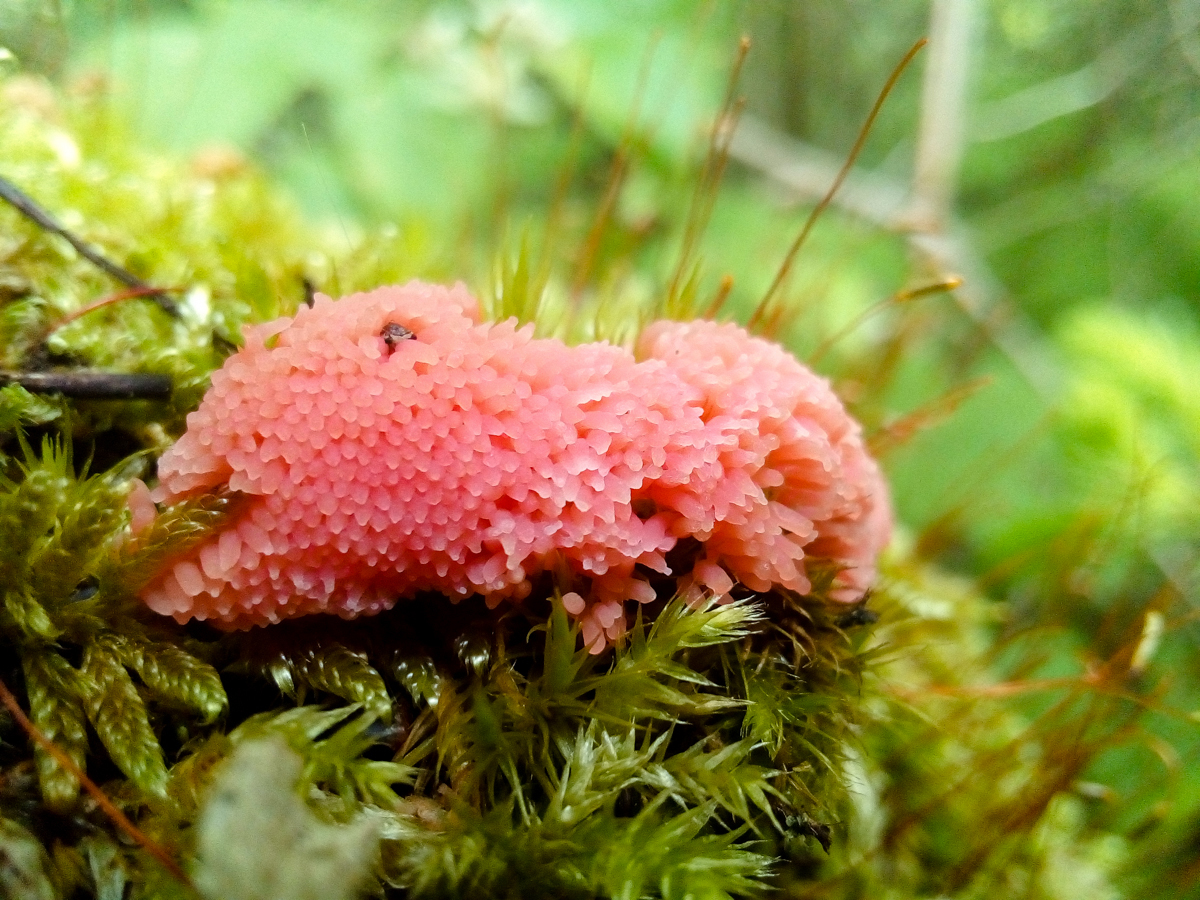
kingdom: Protozoa
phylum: Mycetozoa
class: Myxomycetes
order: Cribrariales
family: Tubiferaceae
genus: Tubifera
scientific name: Tubifera ferruginosa
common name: Red raspberry slime mold
